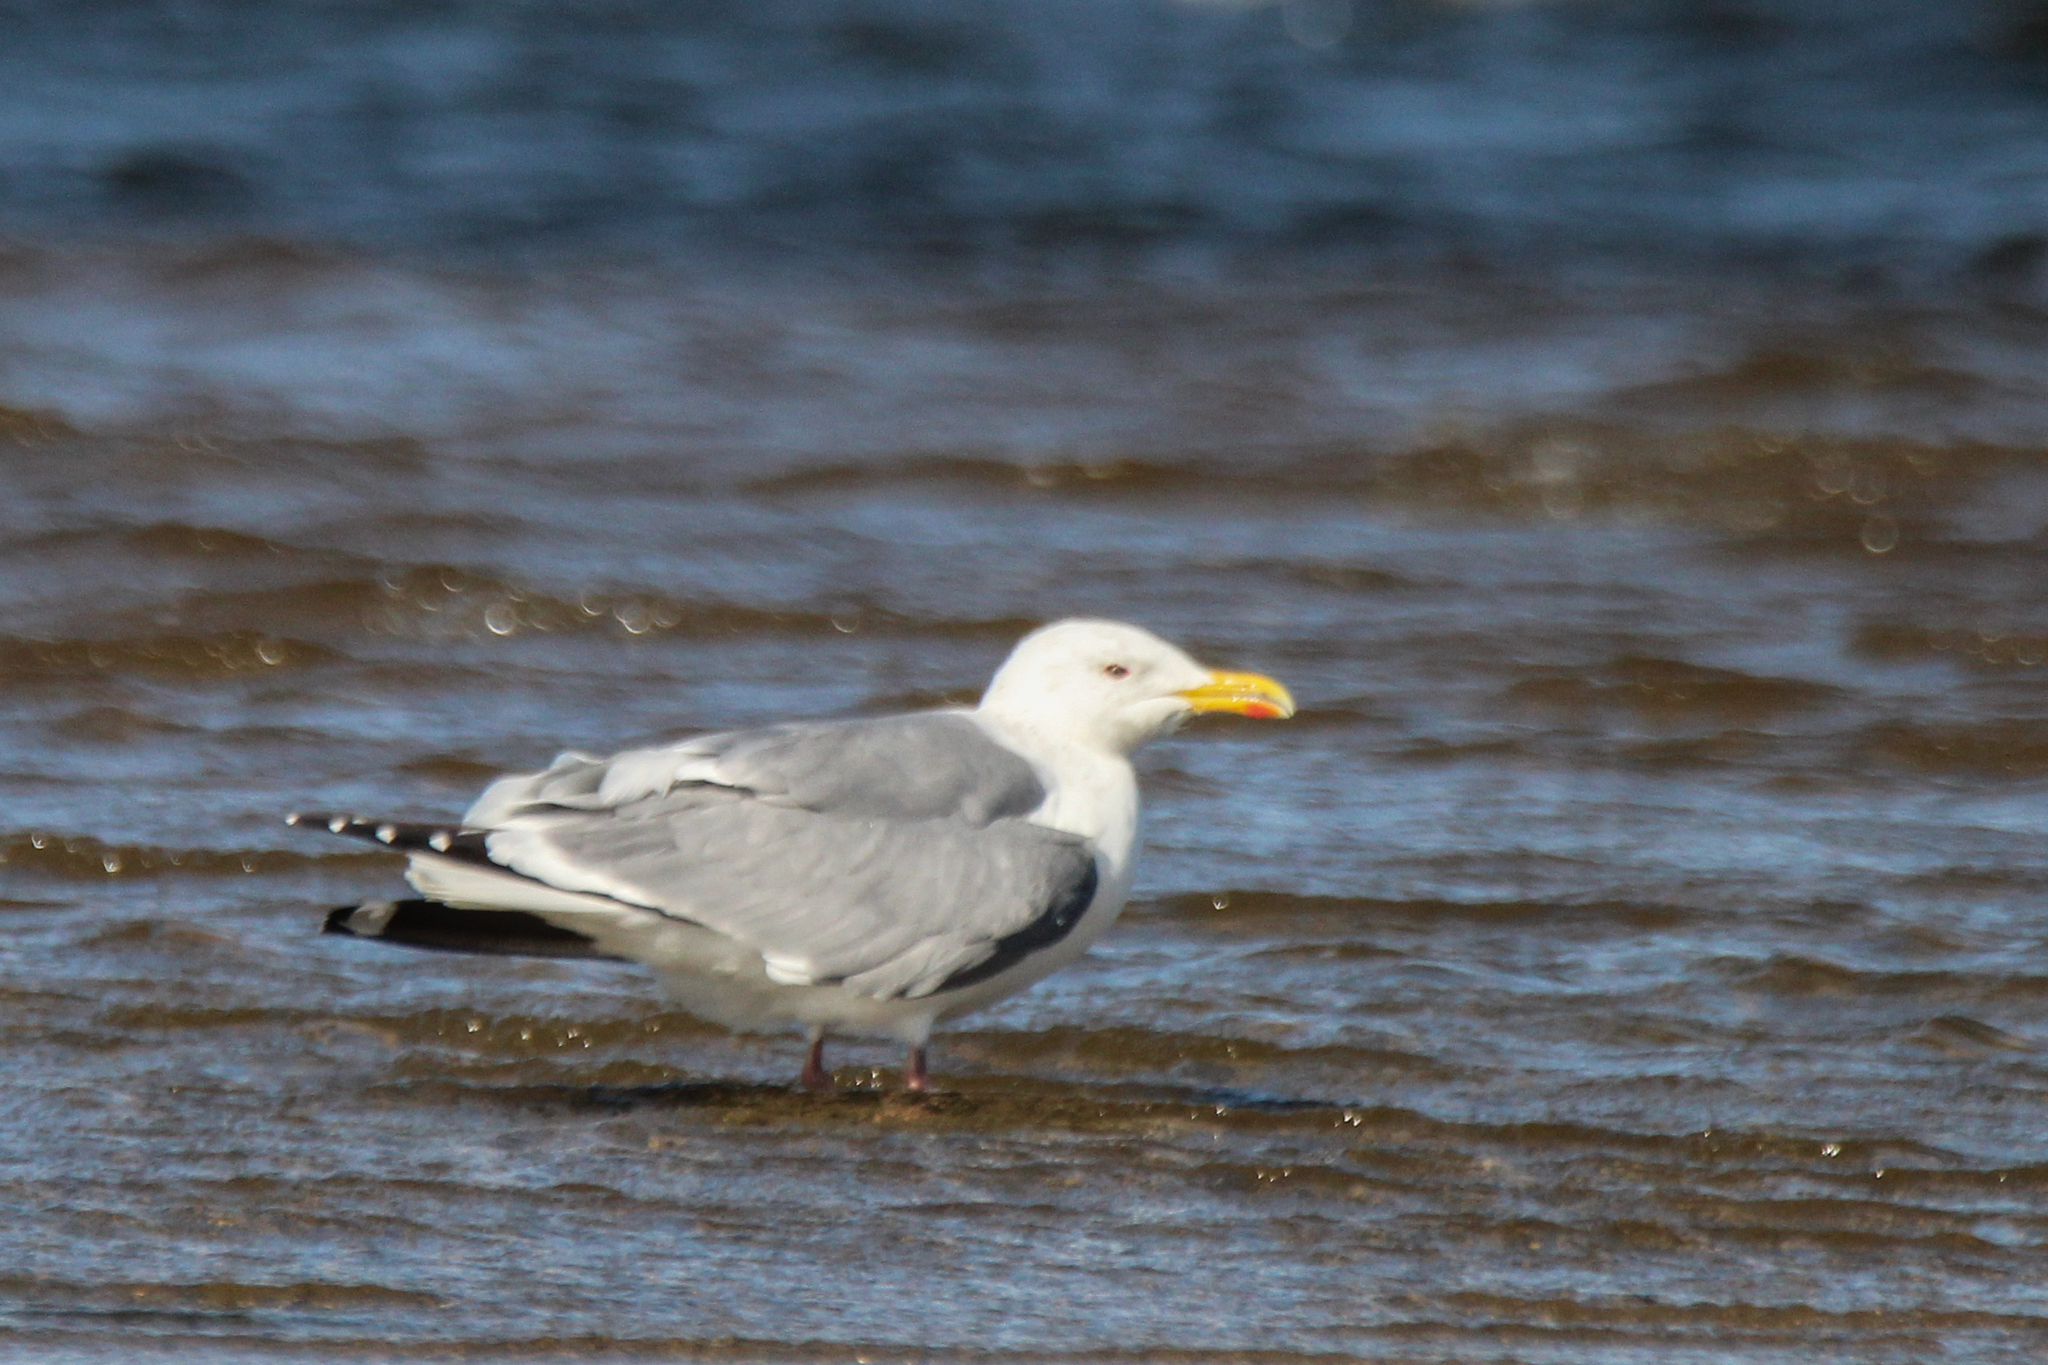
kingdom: Animalia
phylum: Chordata
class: Aves
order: Charadriiformes
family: Laridae
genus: Larus
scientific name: Larus vegae
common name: Vega gull
